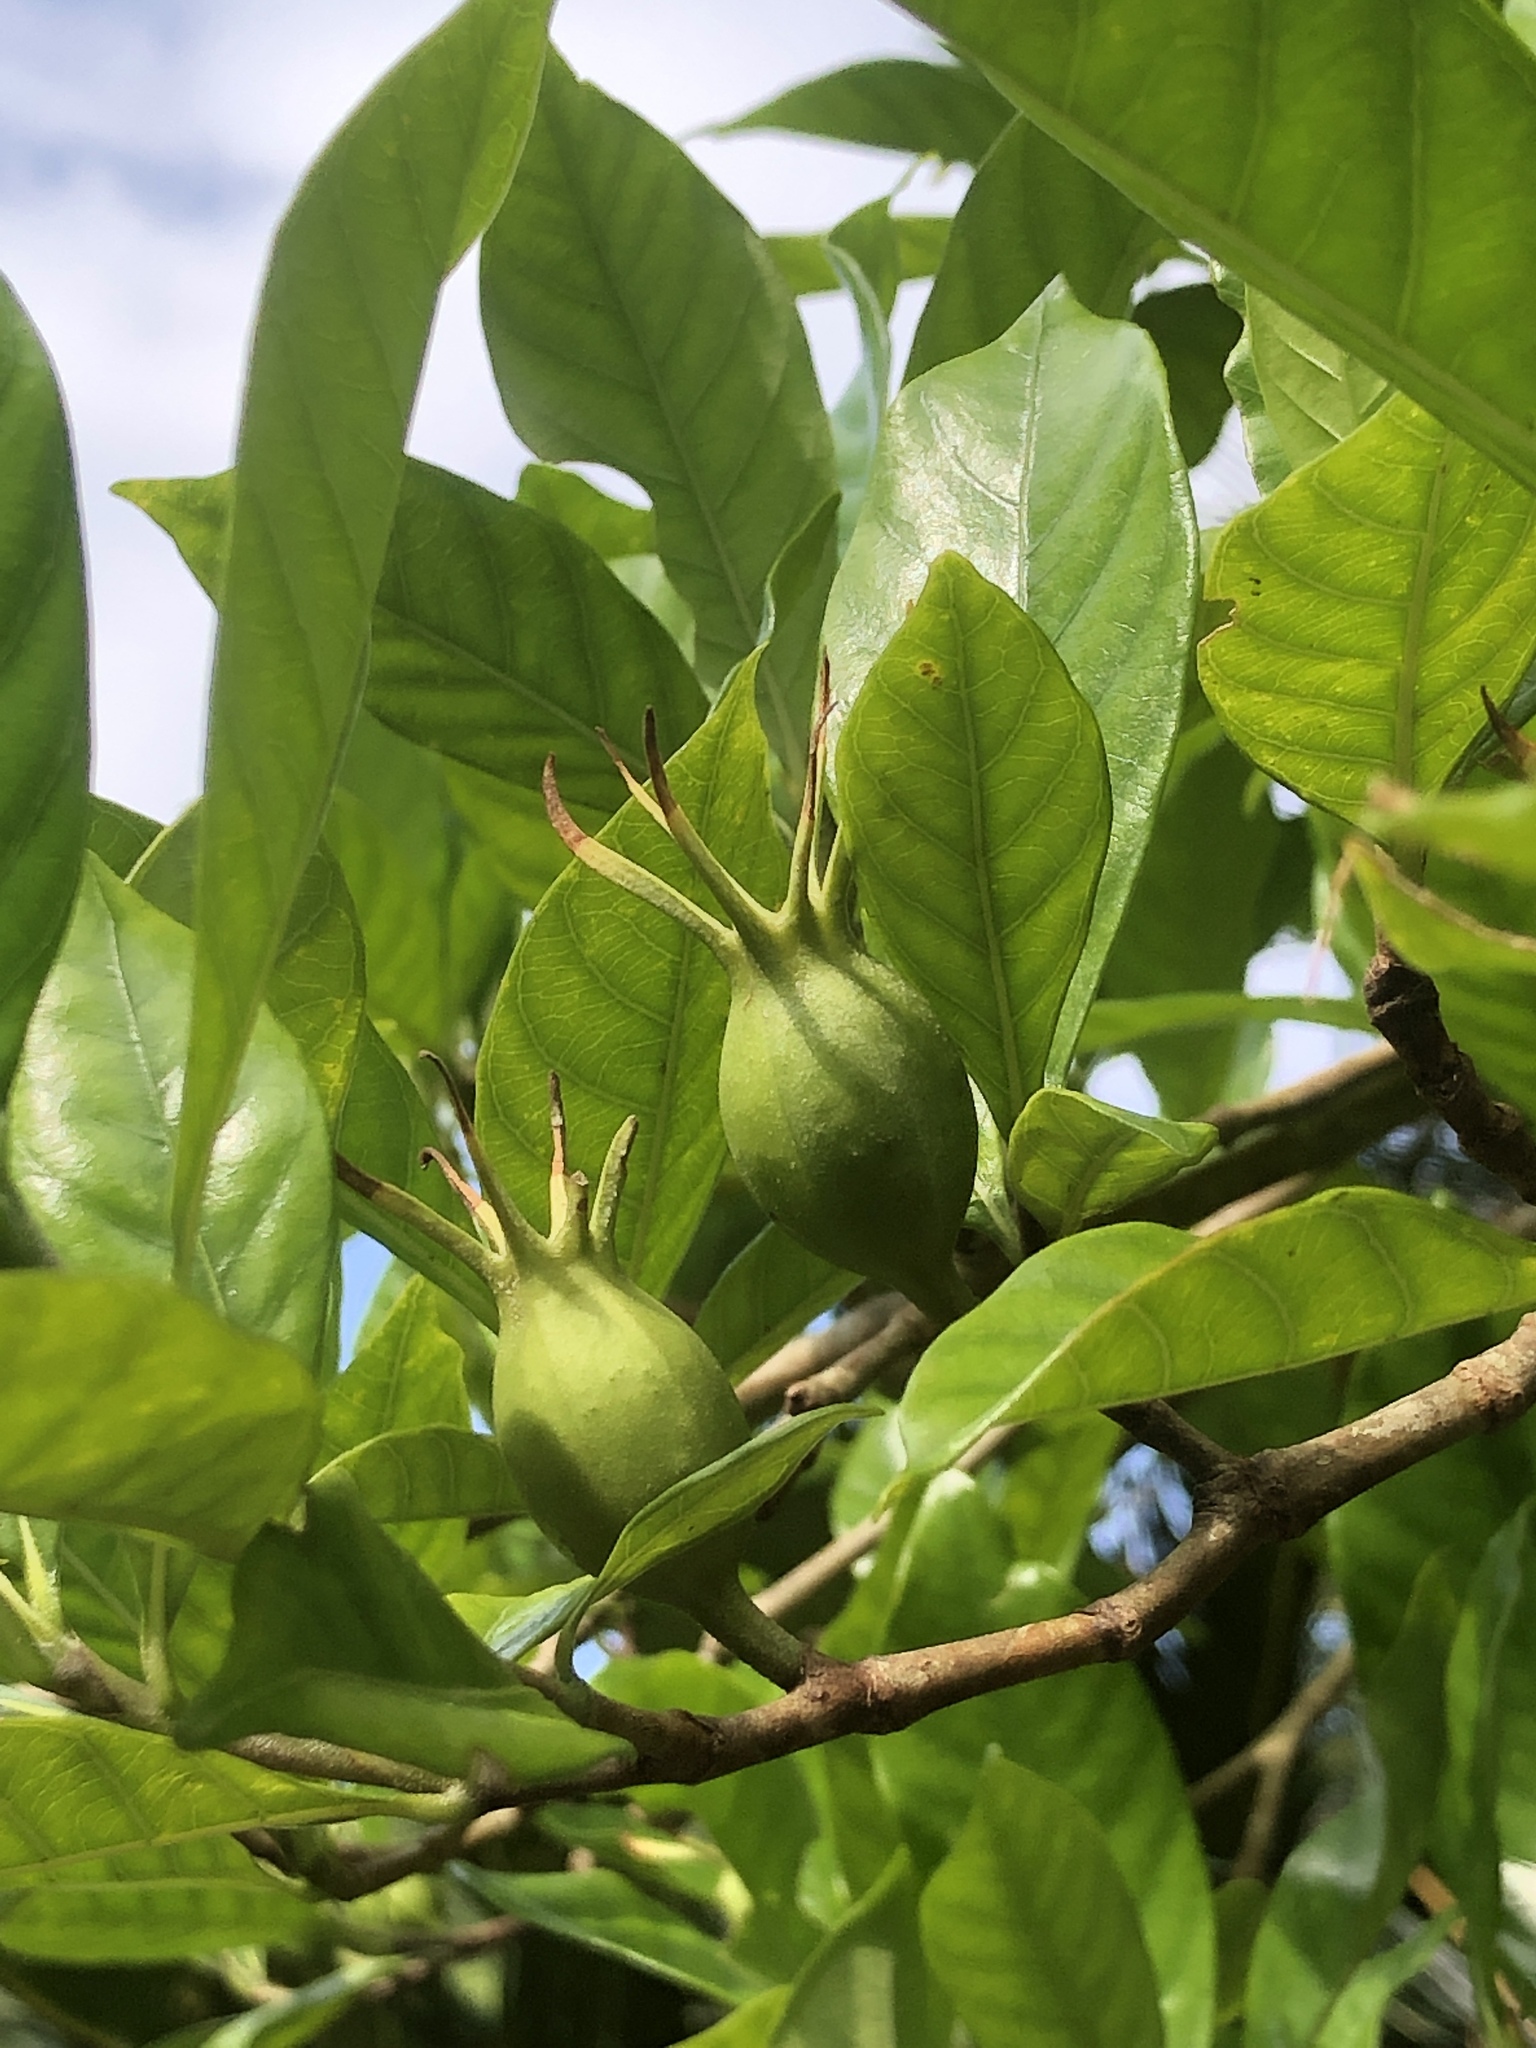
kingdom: Plantae
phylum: Tracheophyta
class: Magnoliopsida
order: Gentianales
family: Rubiaceae
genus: Gardenia
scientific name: Gardenia jasminoides
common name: Cape-jasmine
